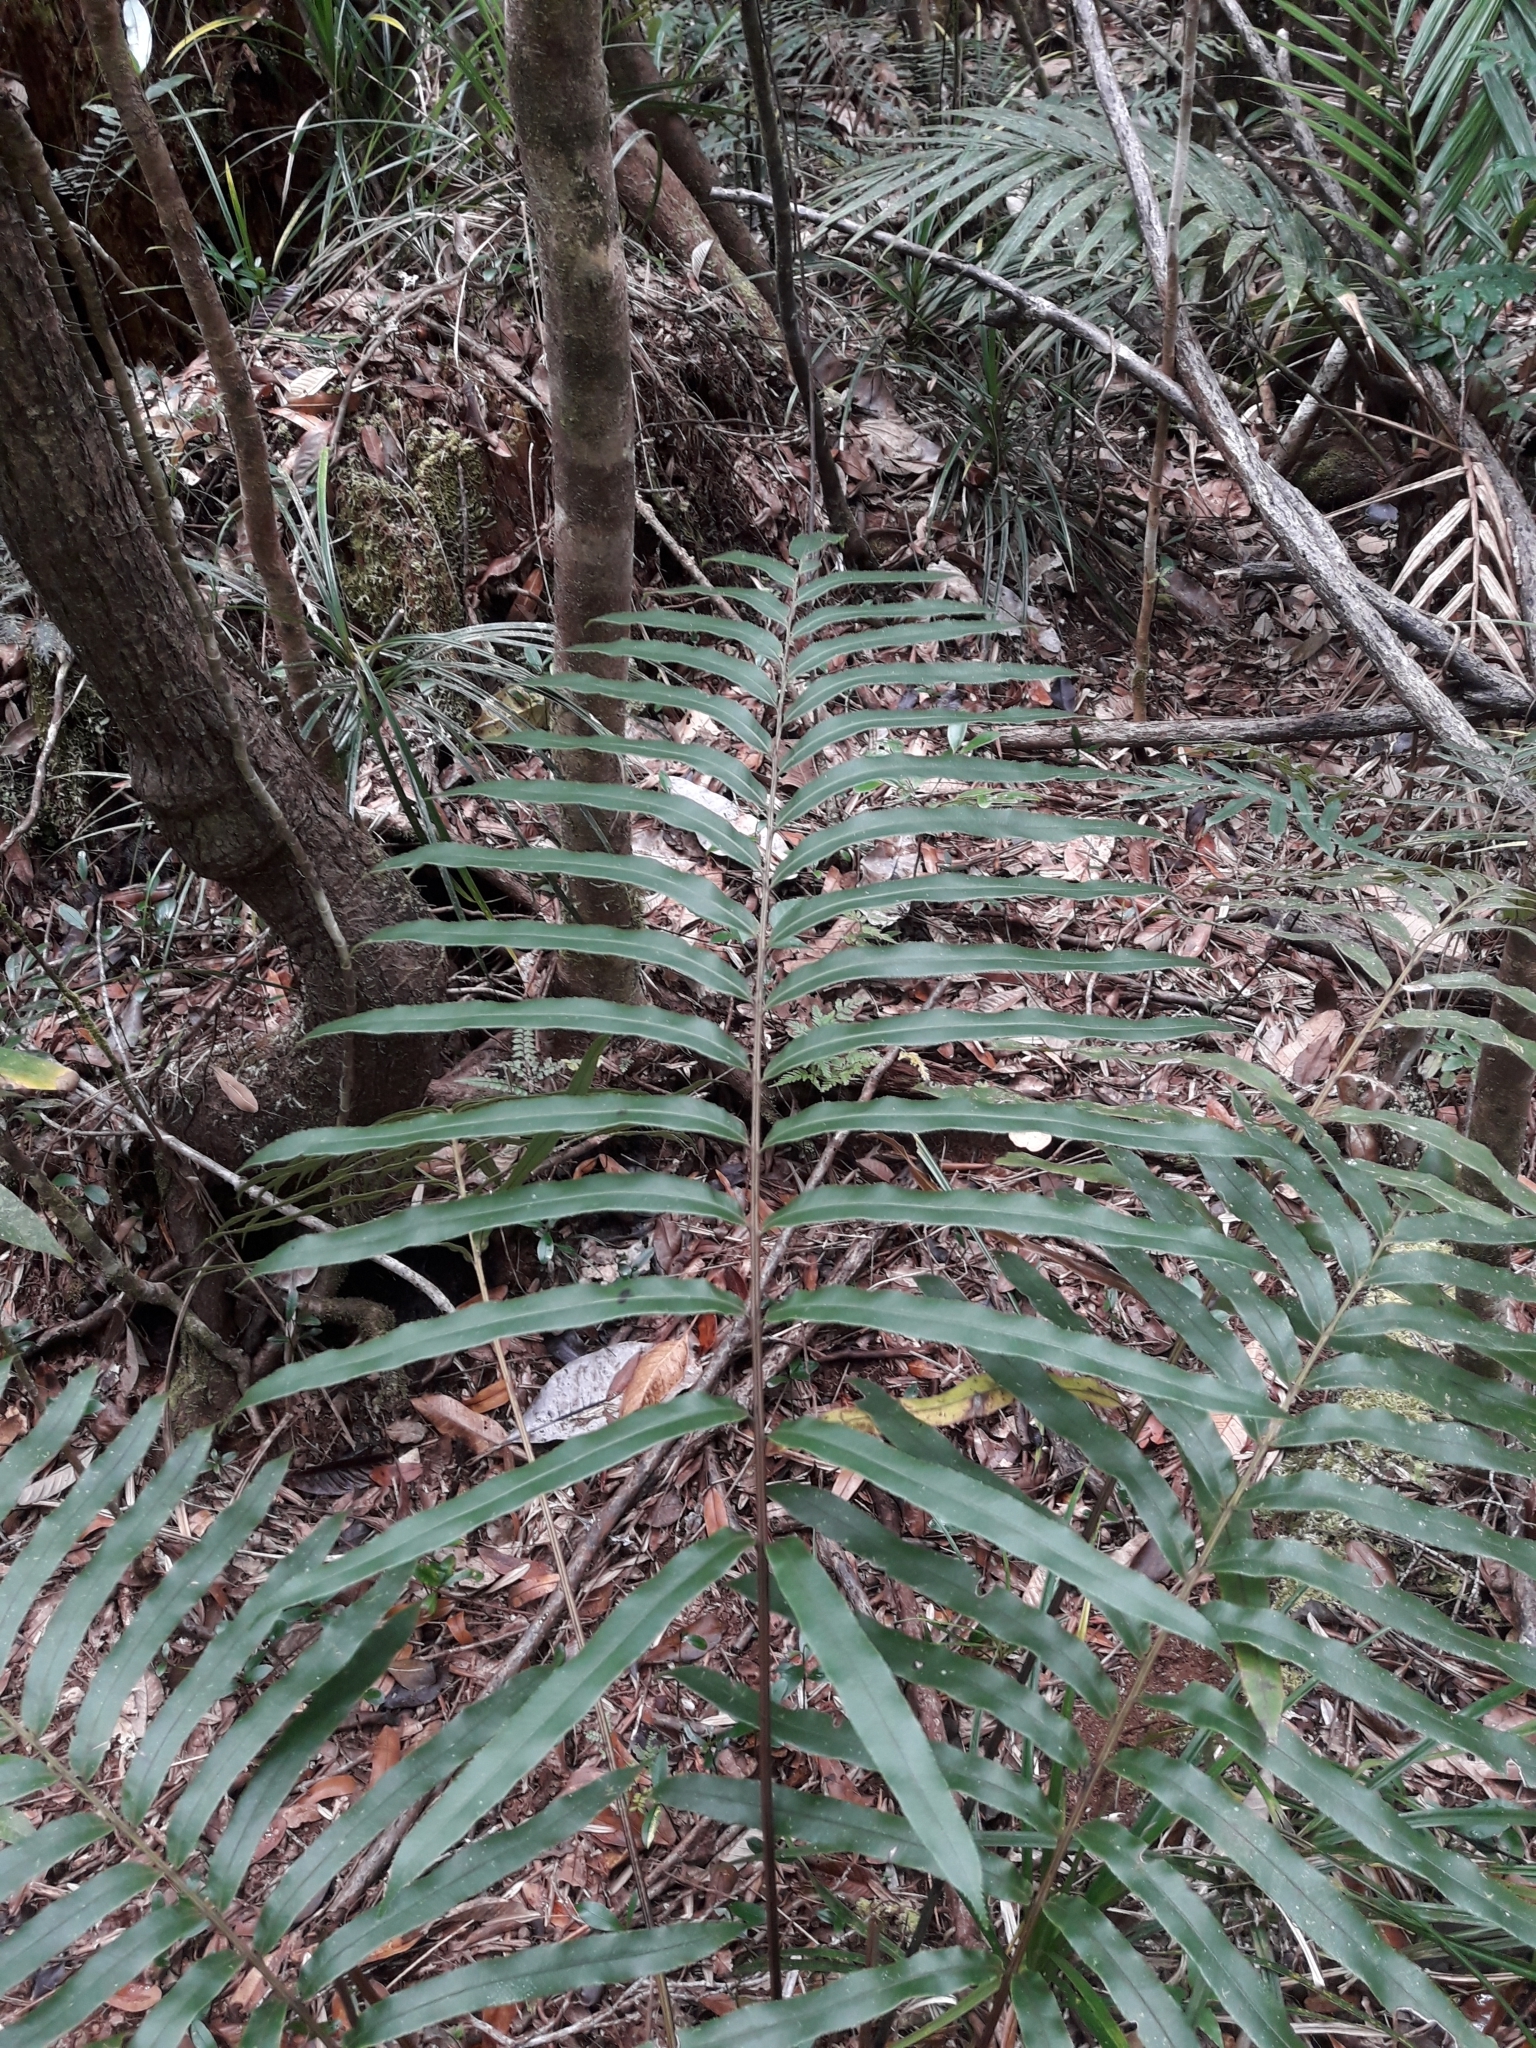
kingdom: Plantae
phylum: Tracheophyta
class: Polypodiopsida
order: Polypodiales
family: Blechnaceae
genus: Parablechnum
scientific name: Parablechnum chauliodontum
